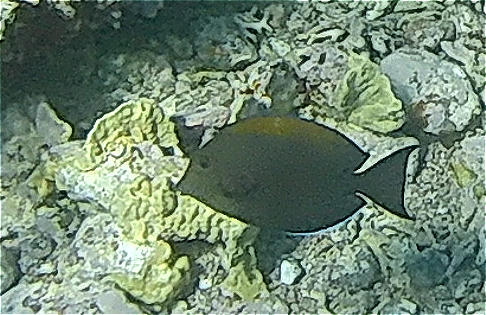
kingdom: Animalia
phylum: Chordata
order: Perciformes
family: Acanthuridae
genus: Acanthurus
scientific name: Acanthurus nigrofuscus
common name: Blackspot surgeonfish
